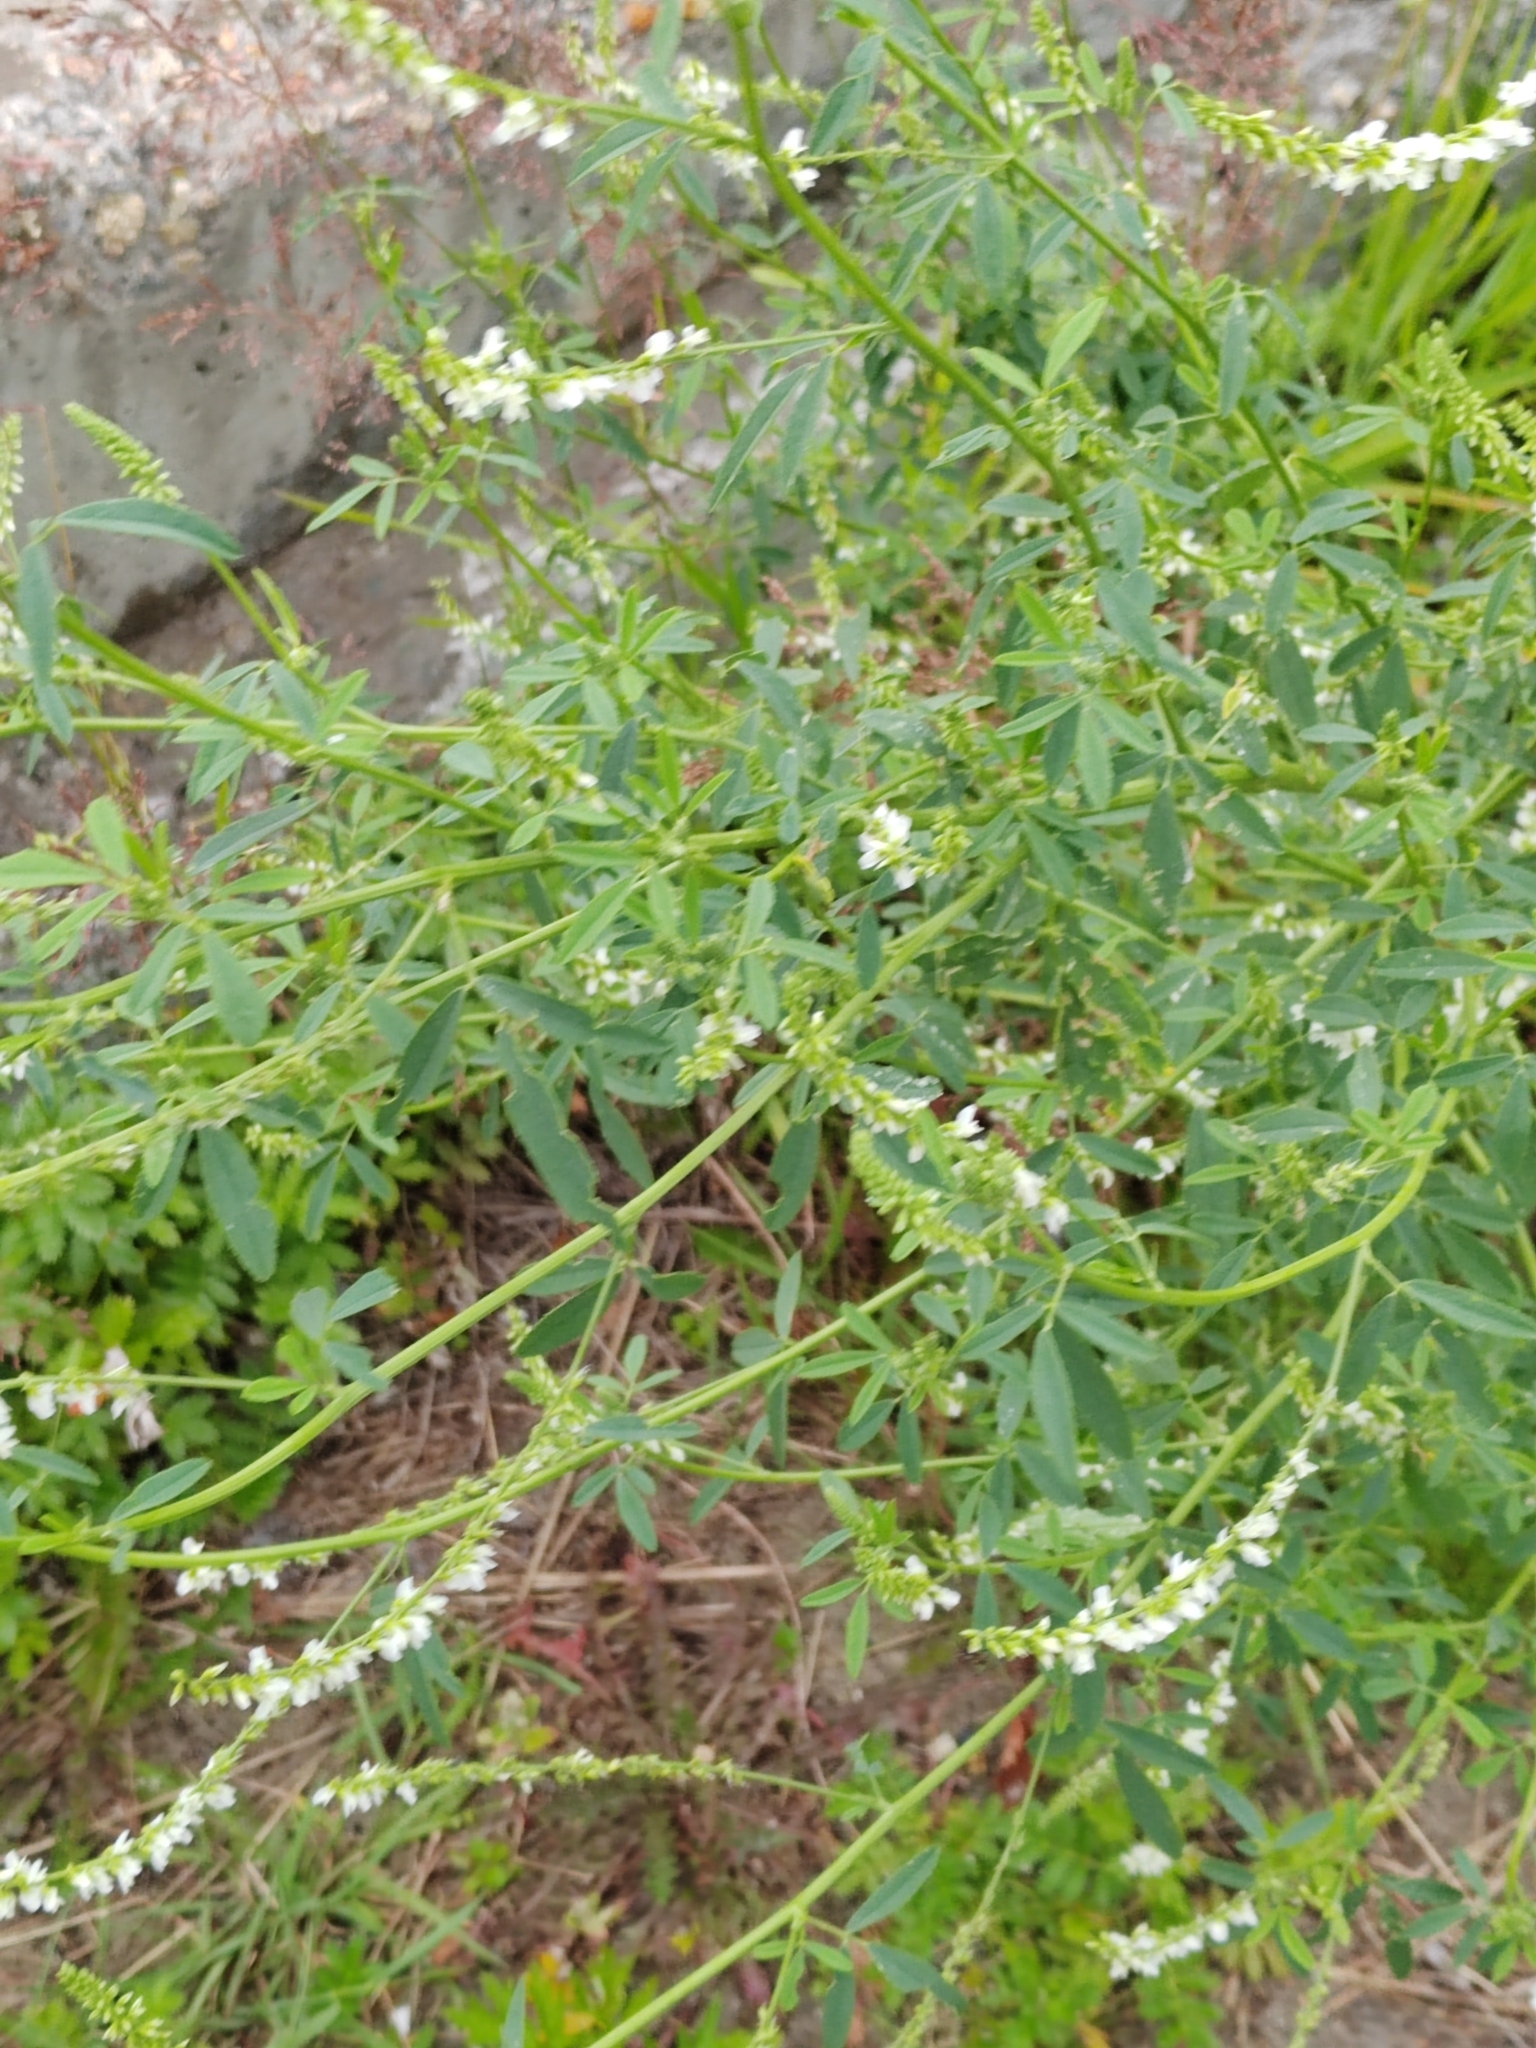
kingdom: Plantae
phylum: Tracheophyta
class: Magnoliopsida
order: Fabales
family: Fabaceae
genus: Melilotus
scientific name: Melilotus albus
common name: White melilot
